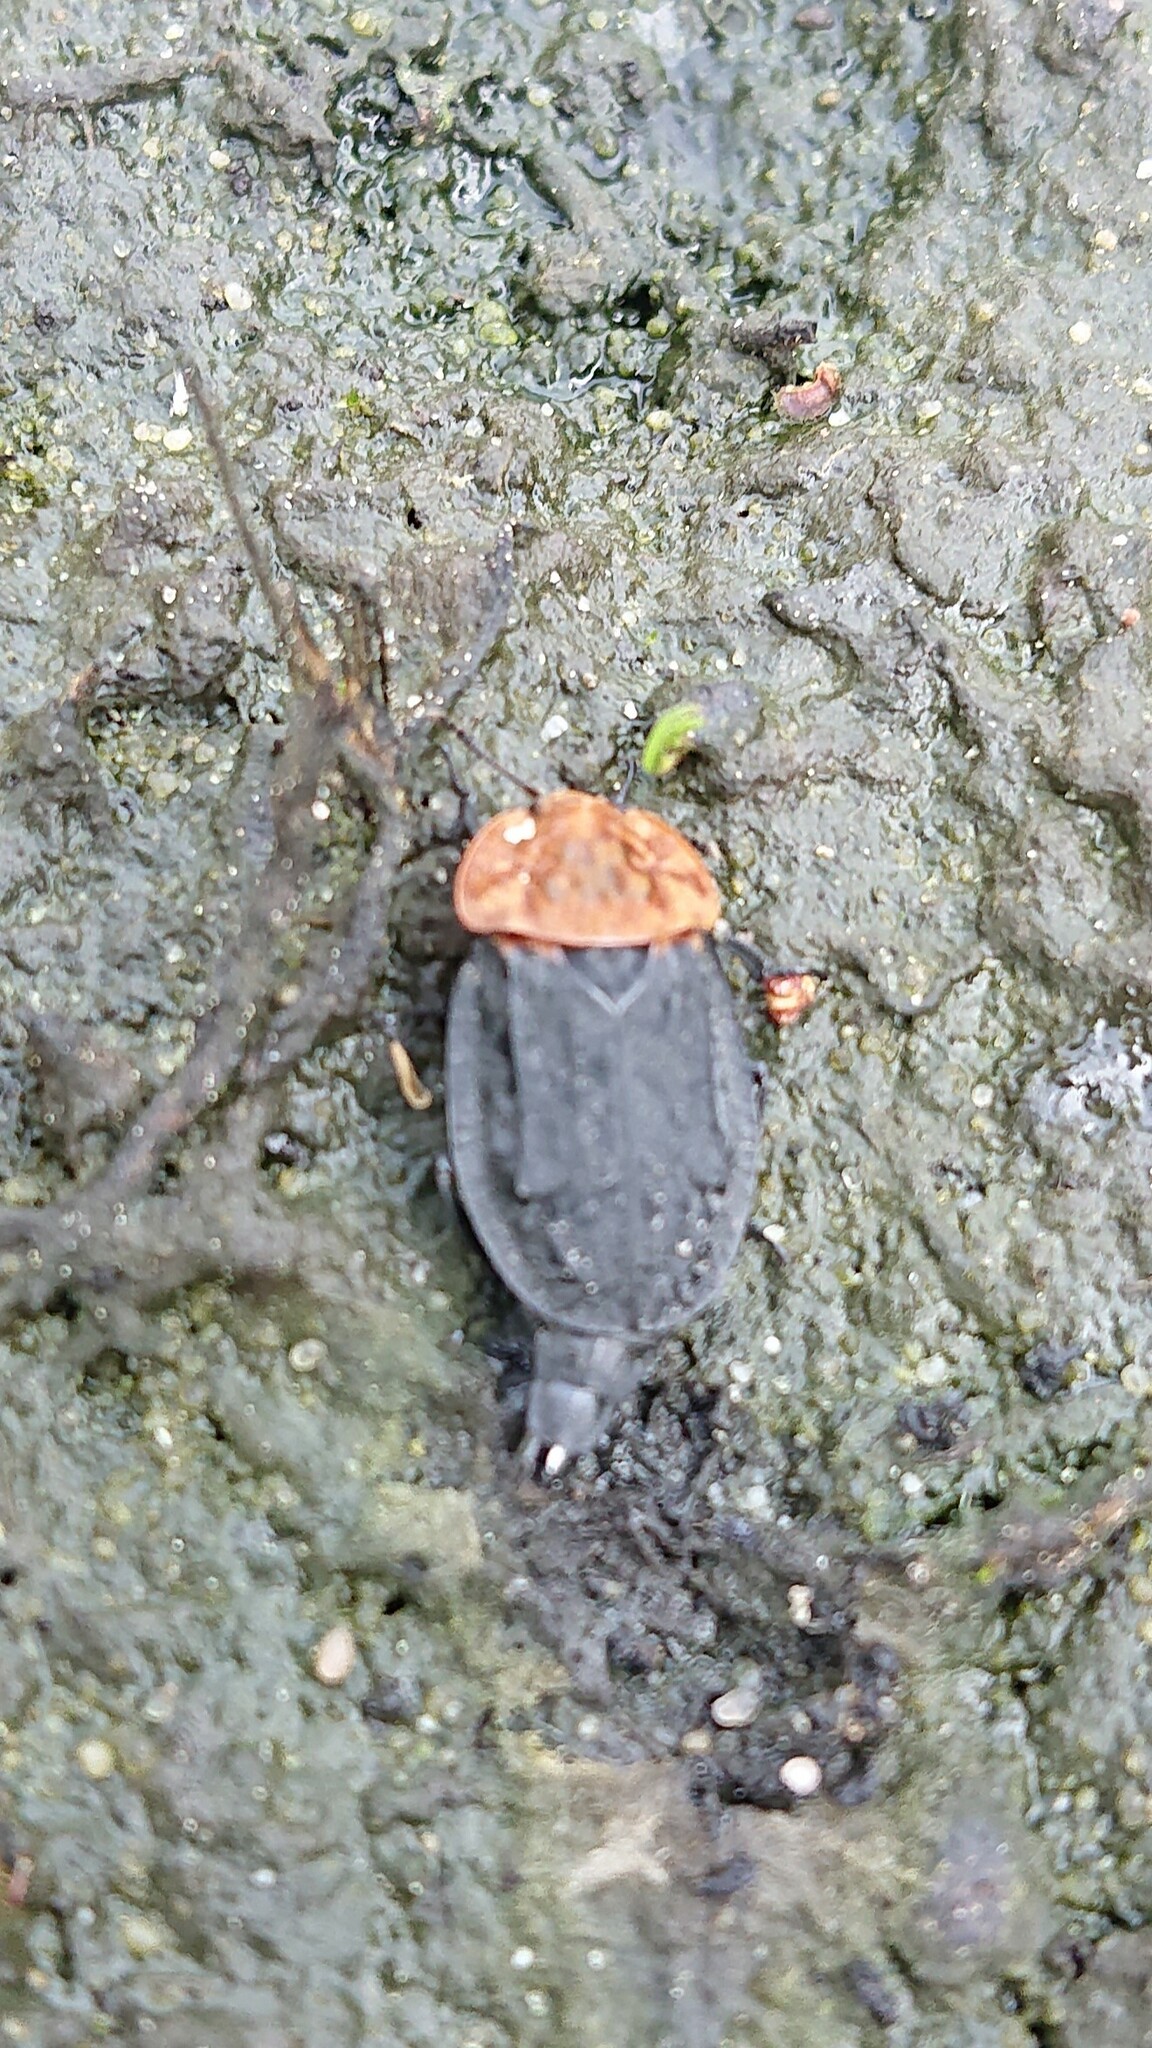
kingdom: Animalia
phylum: Arthropoda
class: Insecta
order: Coleoptera
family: Staphylinidae
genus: Oiceoptoma
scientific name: Oiceoptoma thoracicum
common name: Red-breasted carrion beetle
